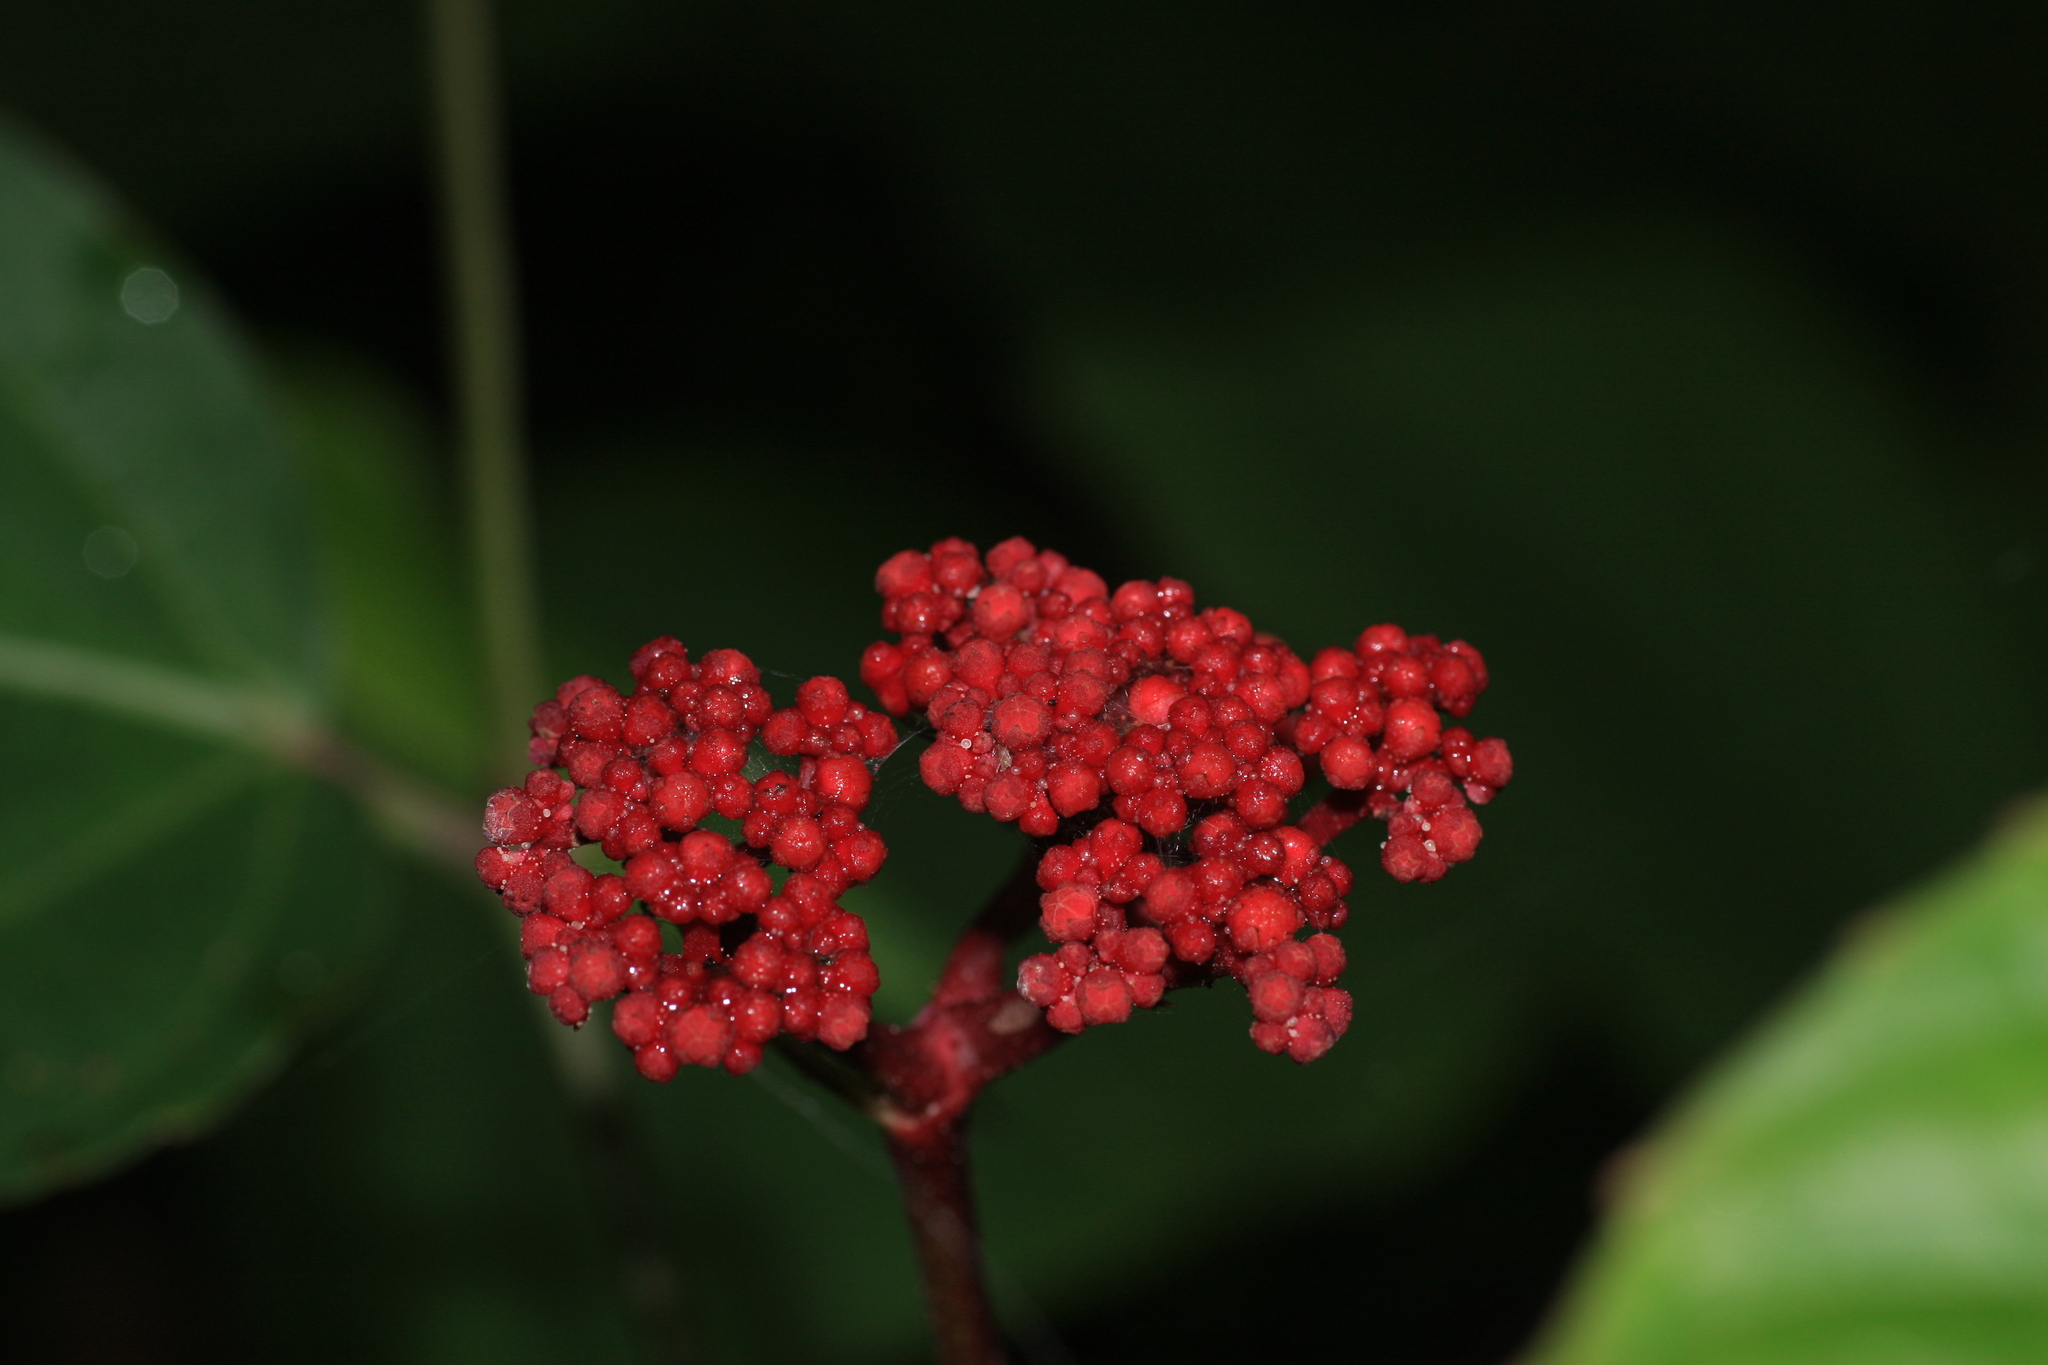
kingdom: Plantae
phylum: Tracheophyta
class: Magnoliopsida
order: Vitales
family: Vitaceae
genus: Leea
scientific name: Leea guineensis
